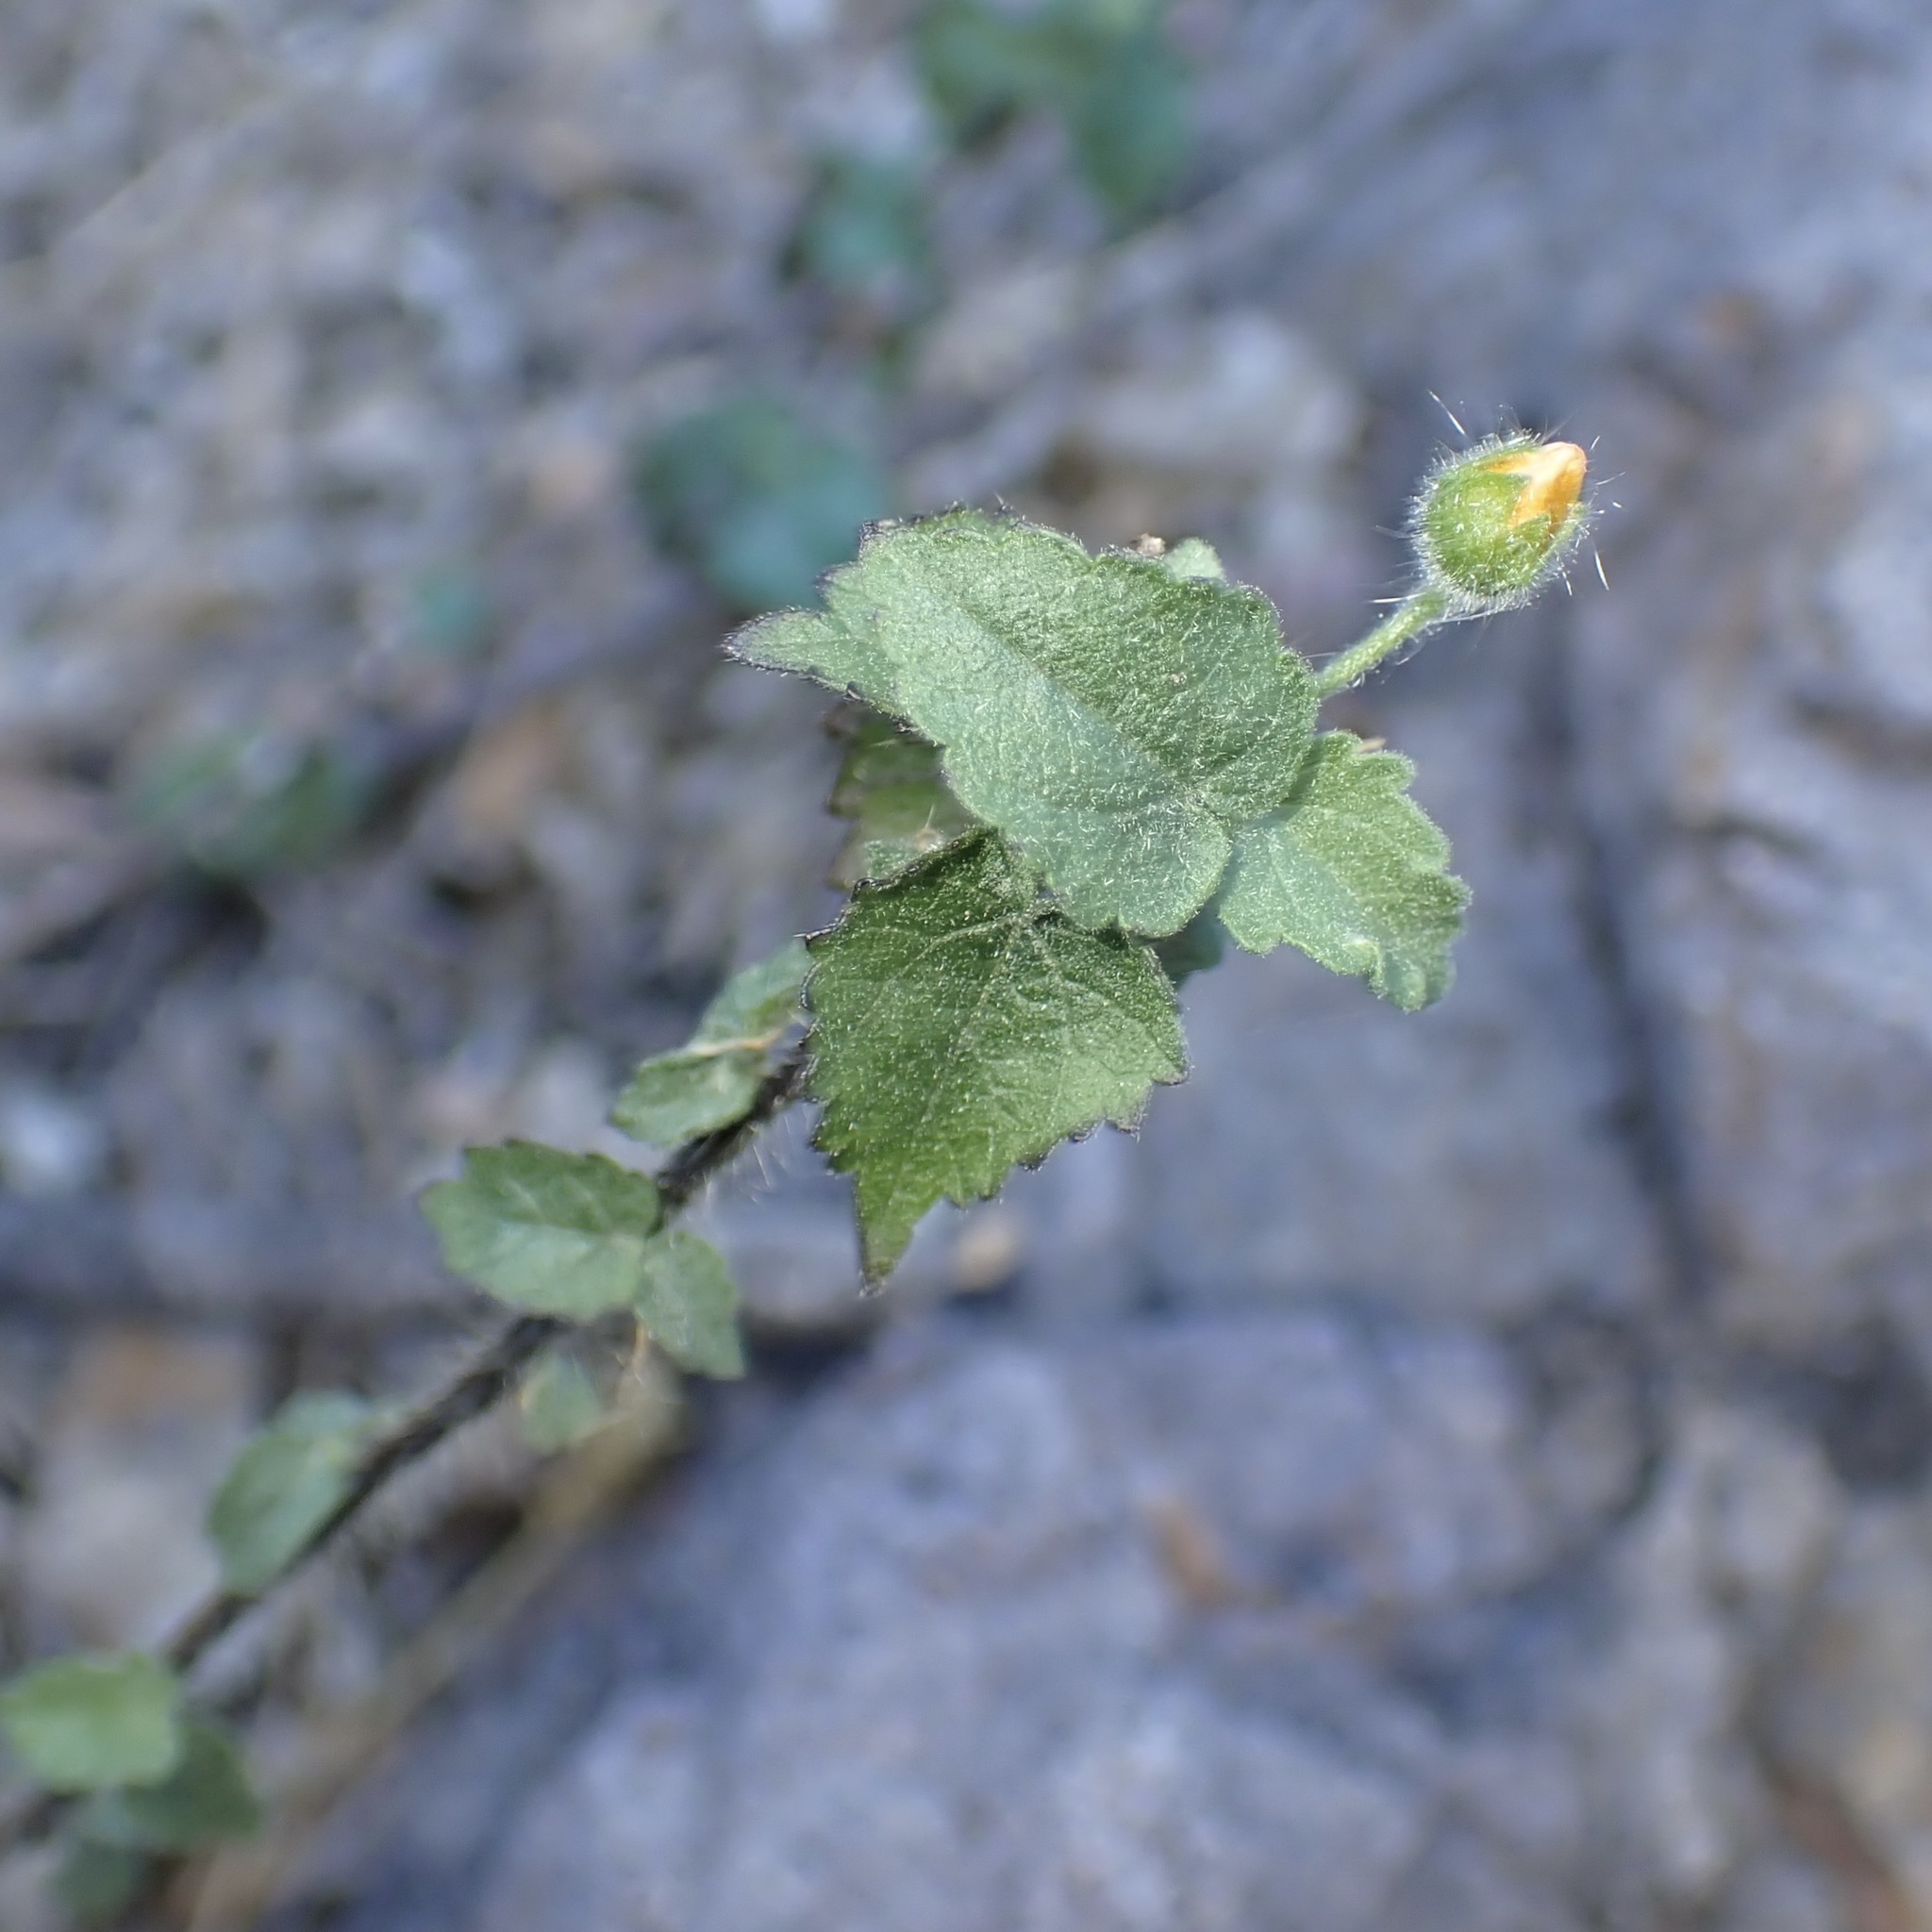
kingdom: Plantae
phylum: Tracheophyta
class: Magnoliopsida
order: Malvales
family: Malvaceae
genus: Pseudabutilon
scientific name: Pseudabutilon thurberi
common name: Thurber's indian mallow
